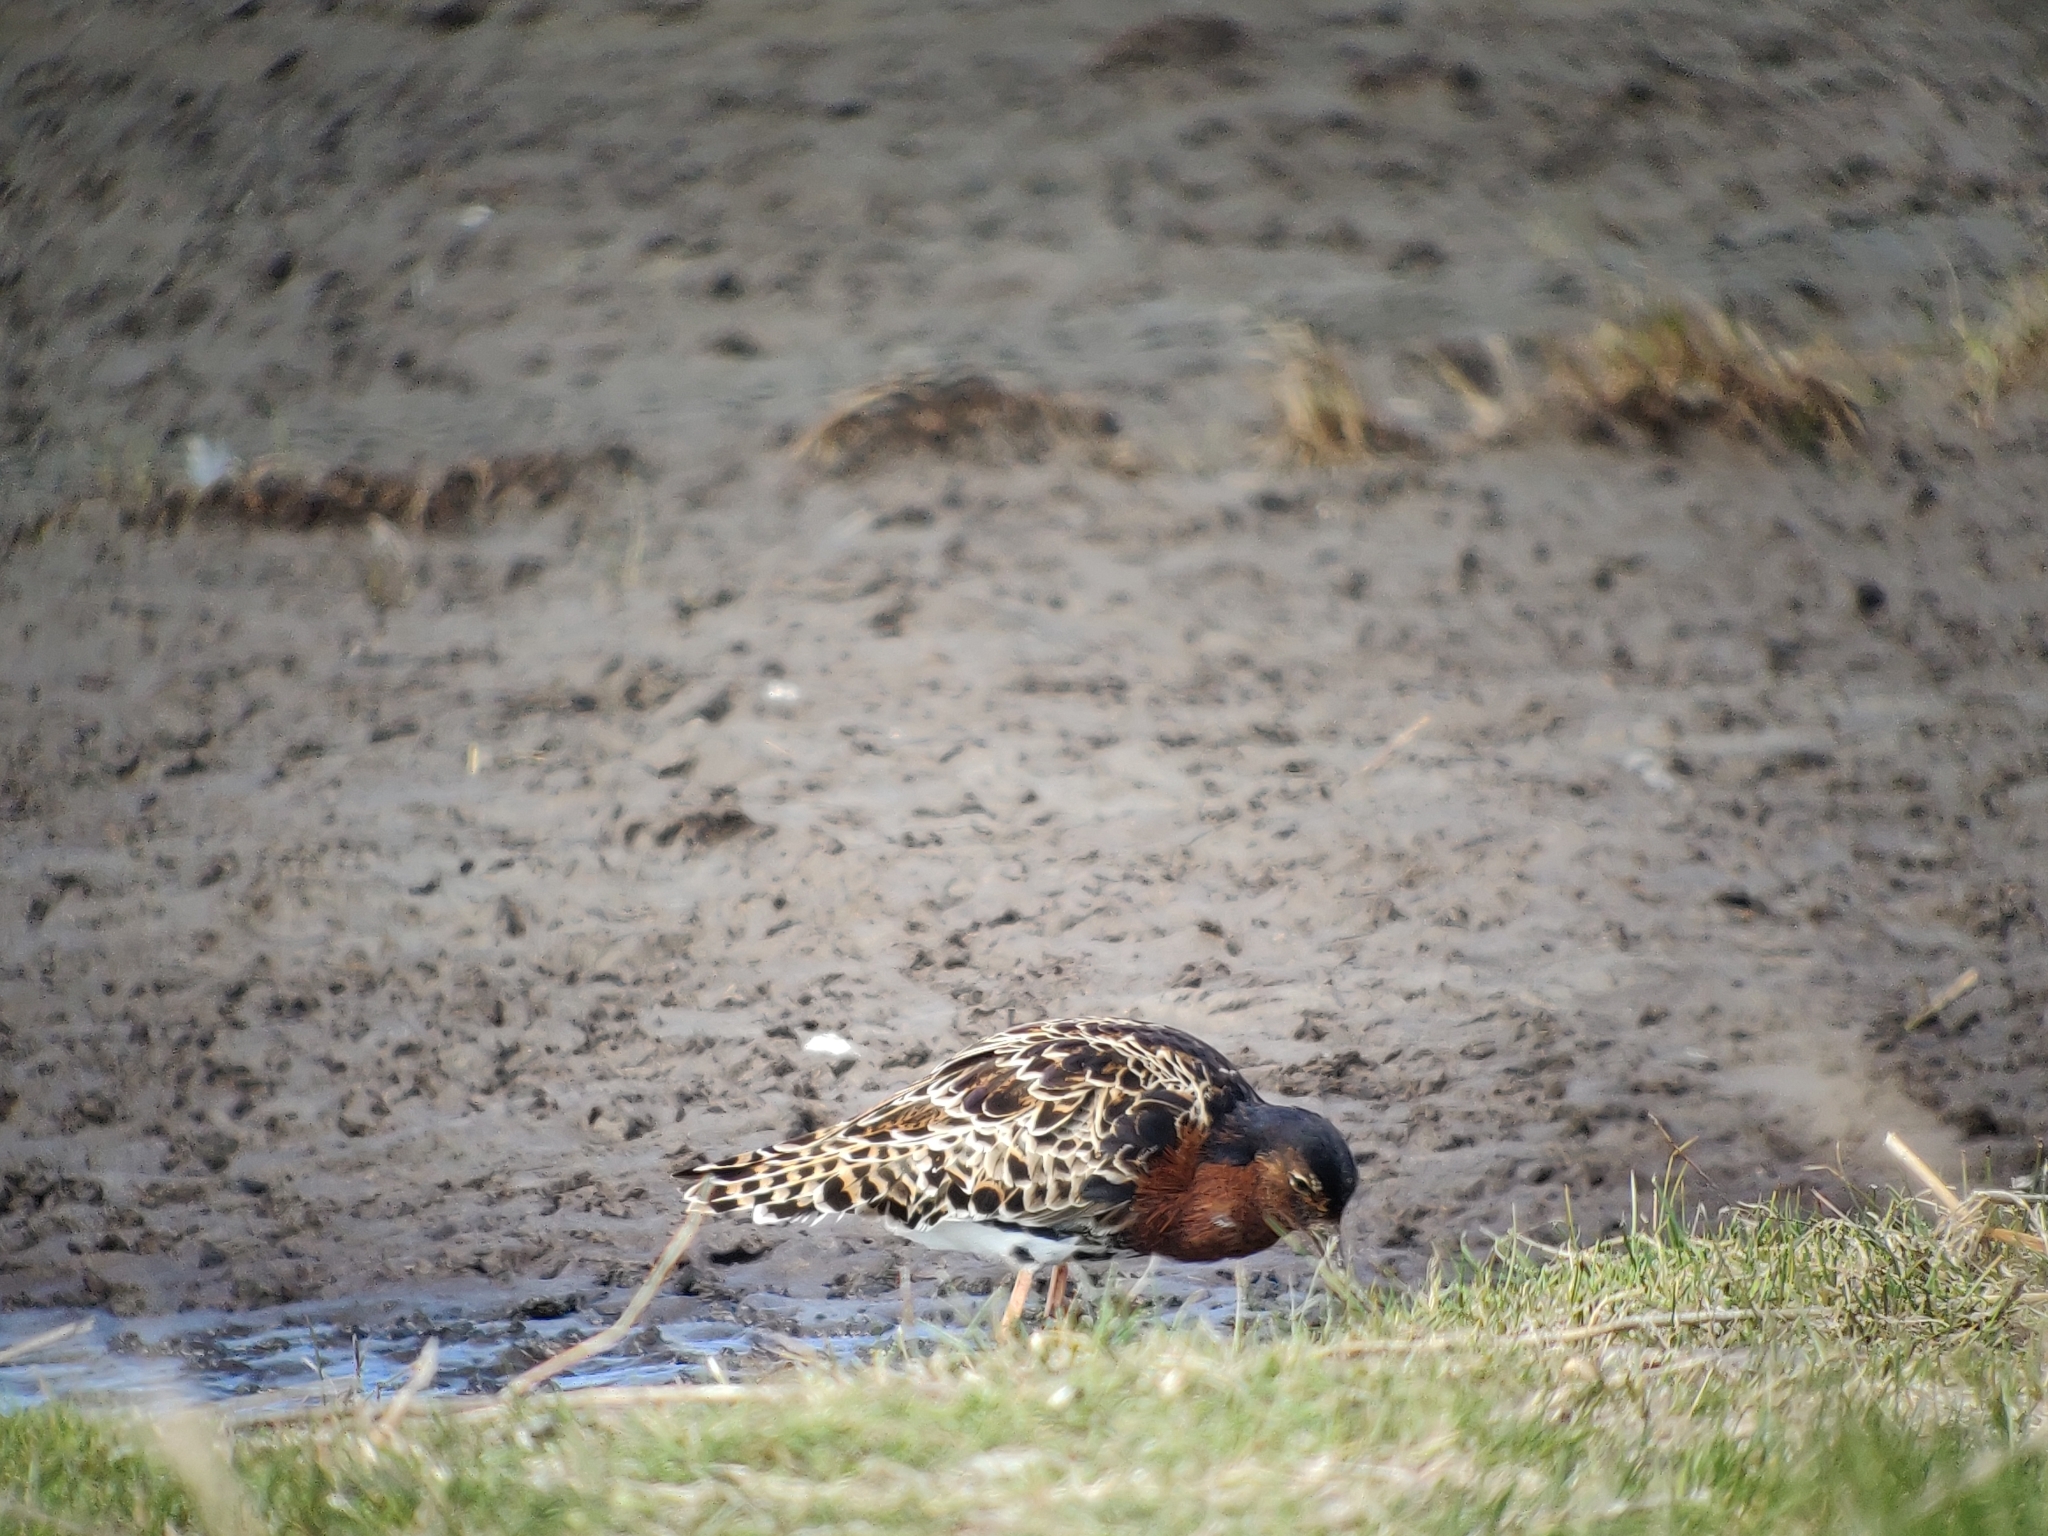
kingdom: Animalia
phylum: Chordata
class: Aves
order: Charadriiformes
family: Scolopacidae
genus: Calidris
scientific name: Calidris pugnax
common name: Ruff
